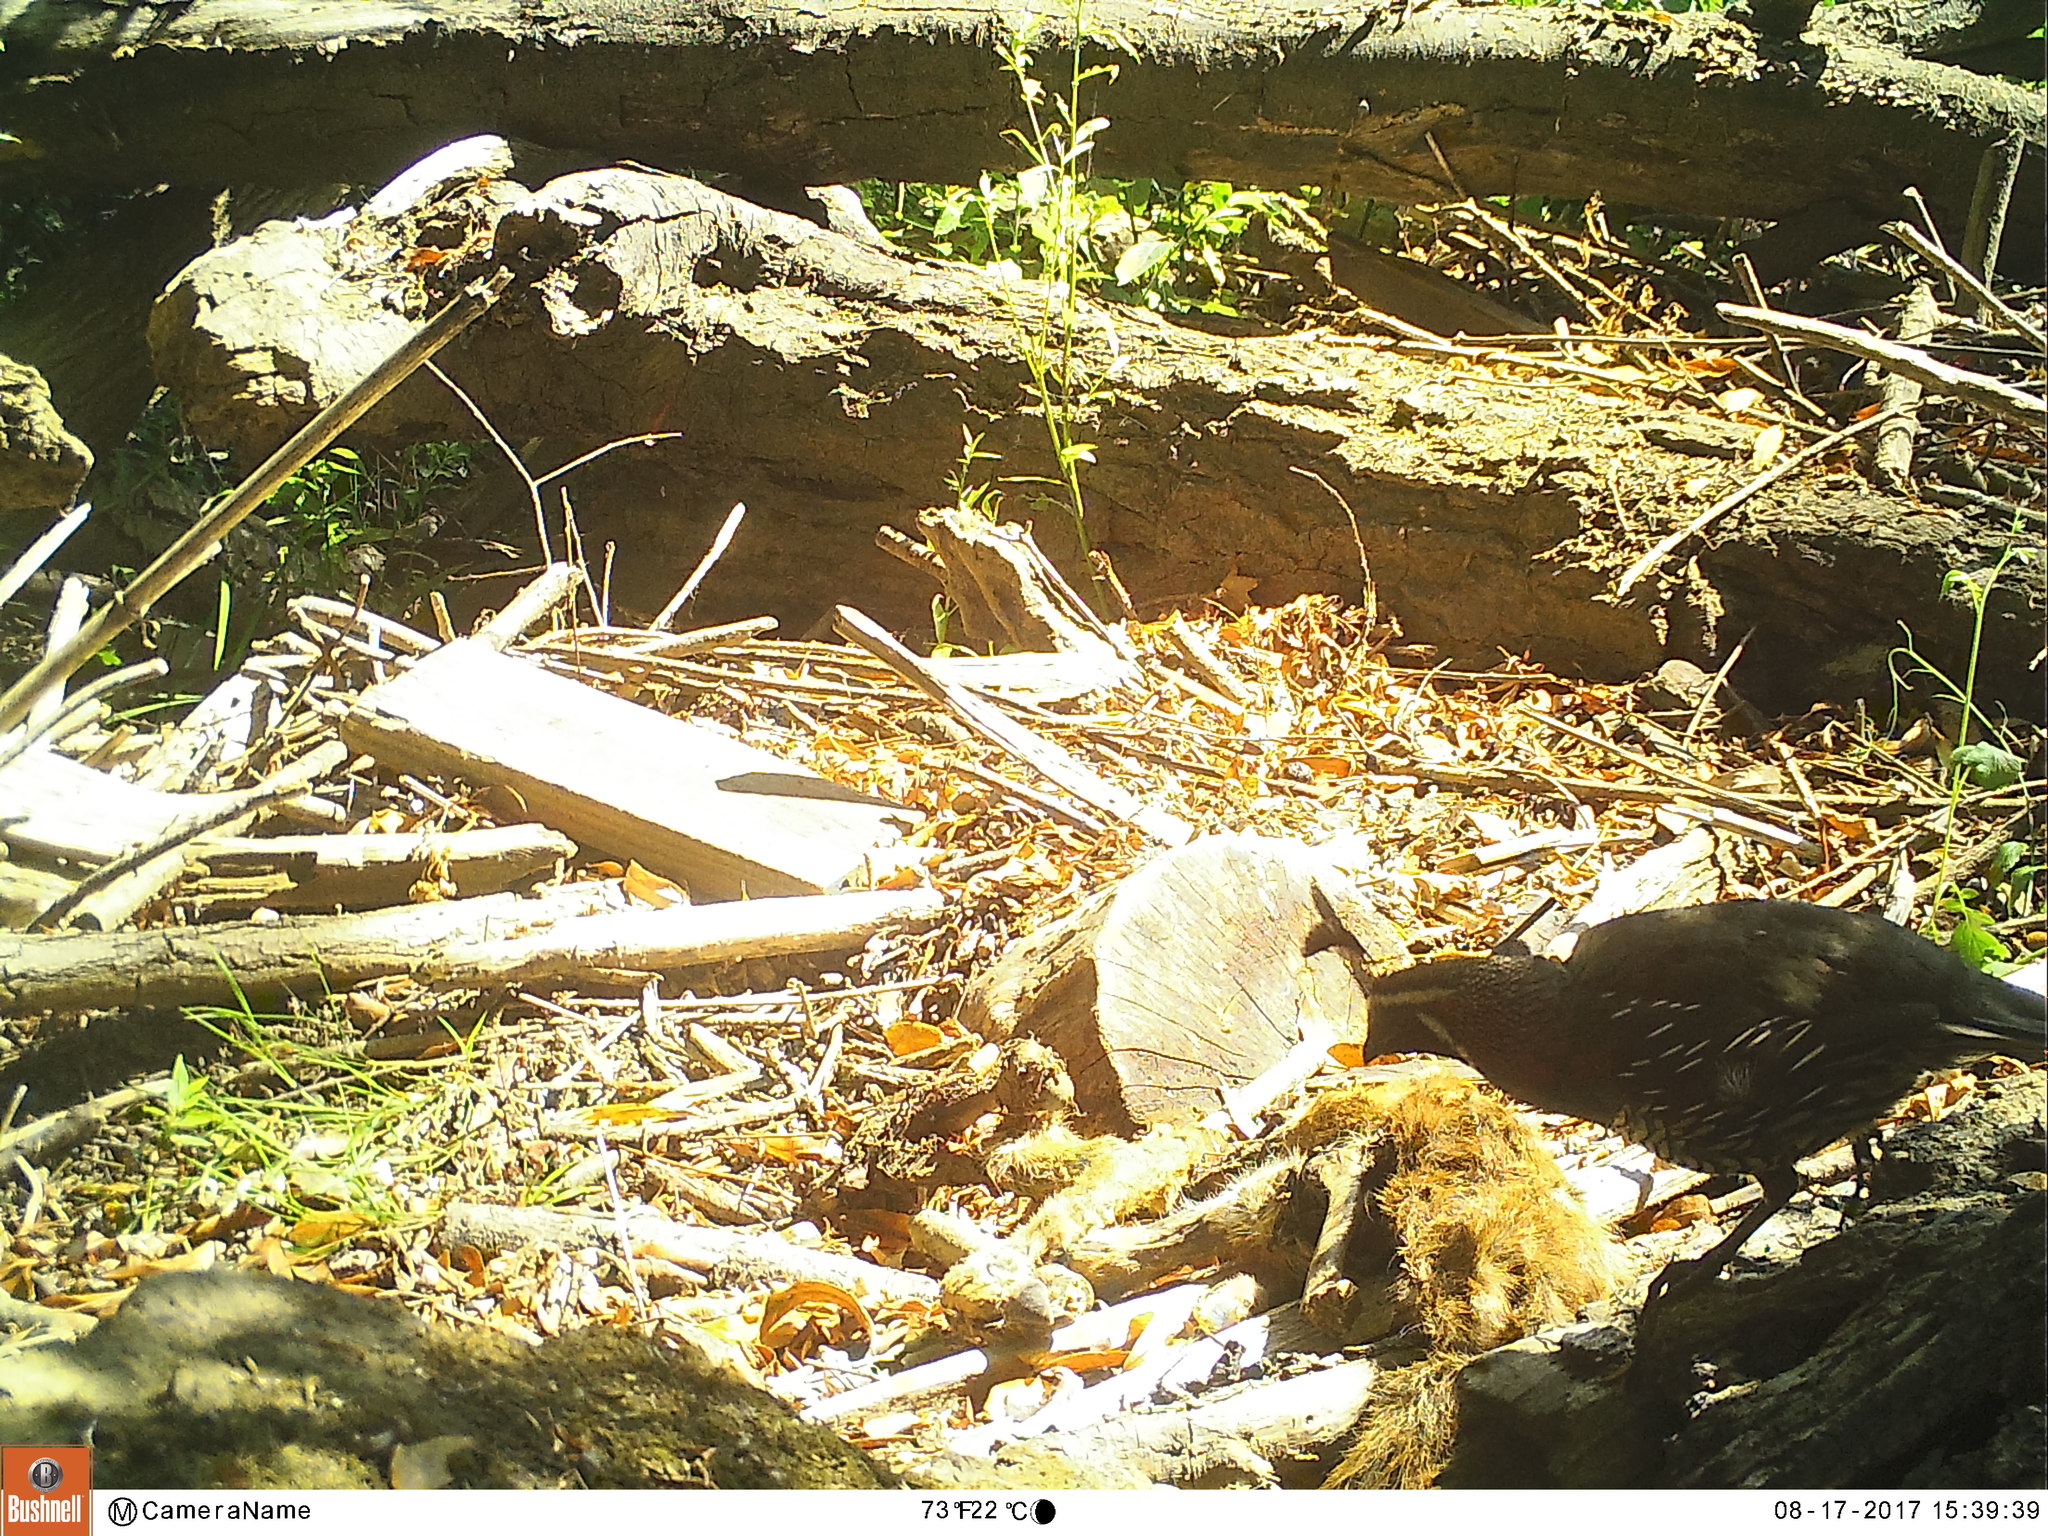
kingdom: Animalia
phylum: Chordata
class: Aves
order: Galliformes
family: Odontophoridae
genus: Callipepla
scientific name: Callipepla californica
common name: California quail
